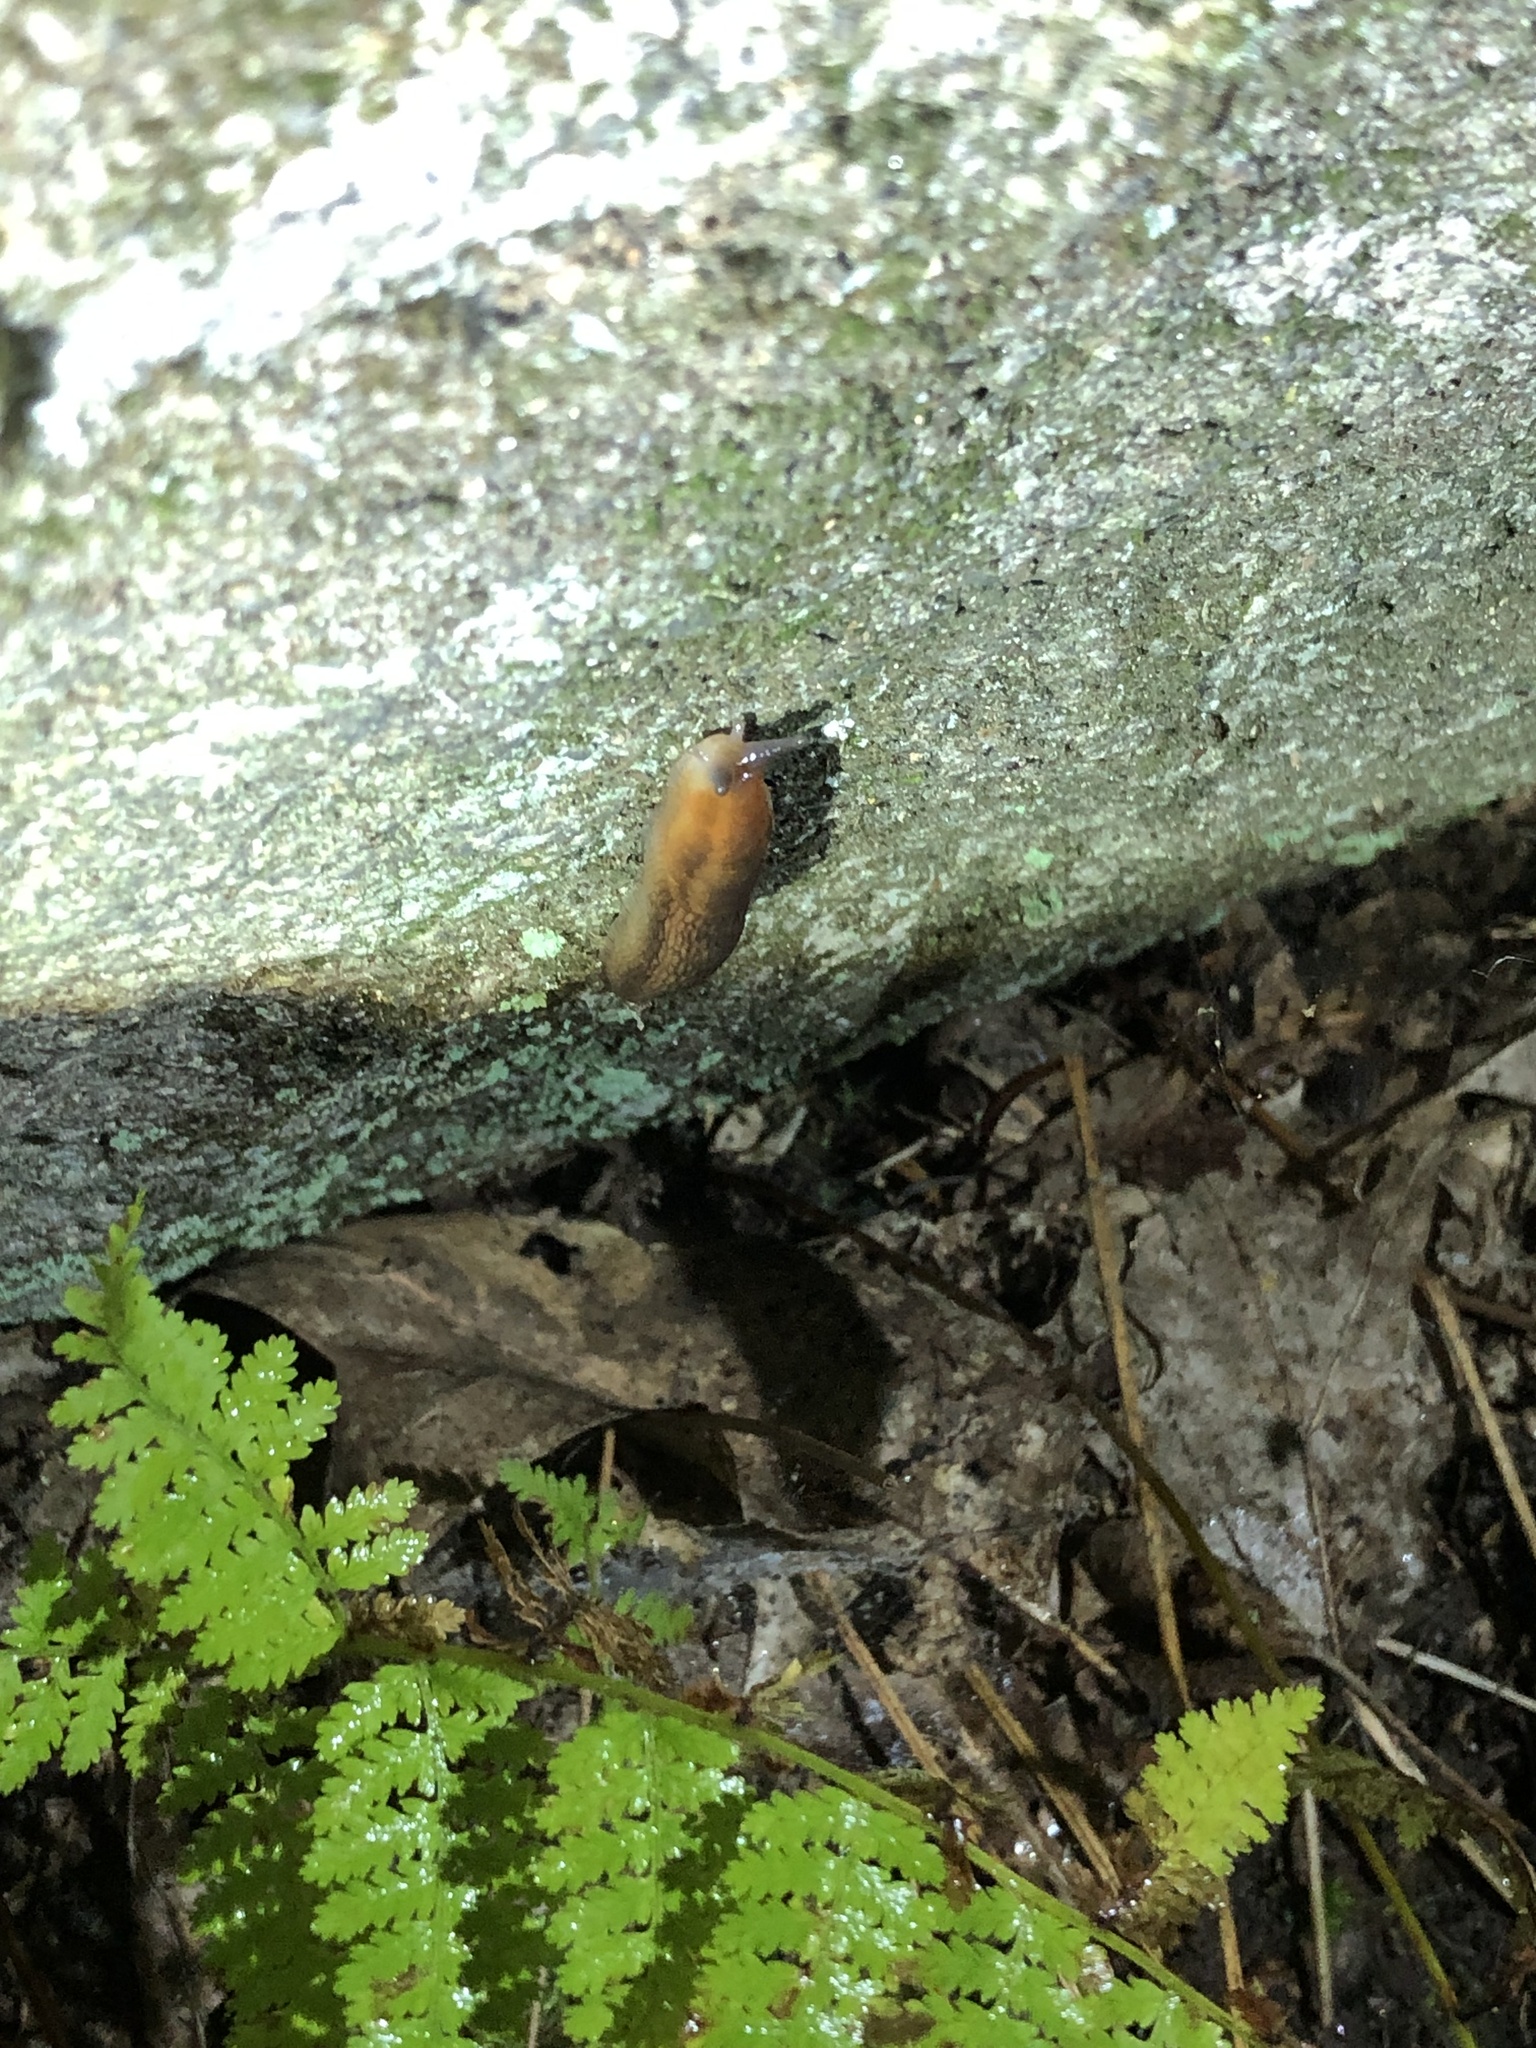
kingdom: Animalia
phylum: Mollusca
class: Gastropoda
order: Stylommatophora
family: Arionidae
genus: Mesarion
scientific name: Mesarion
